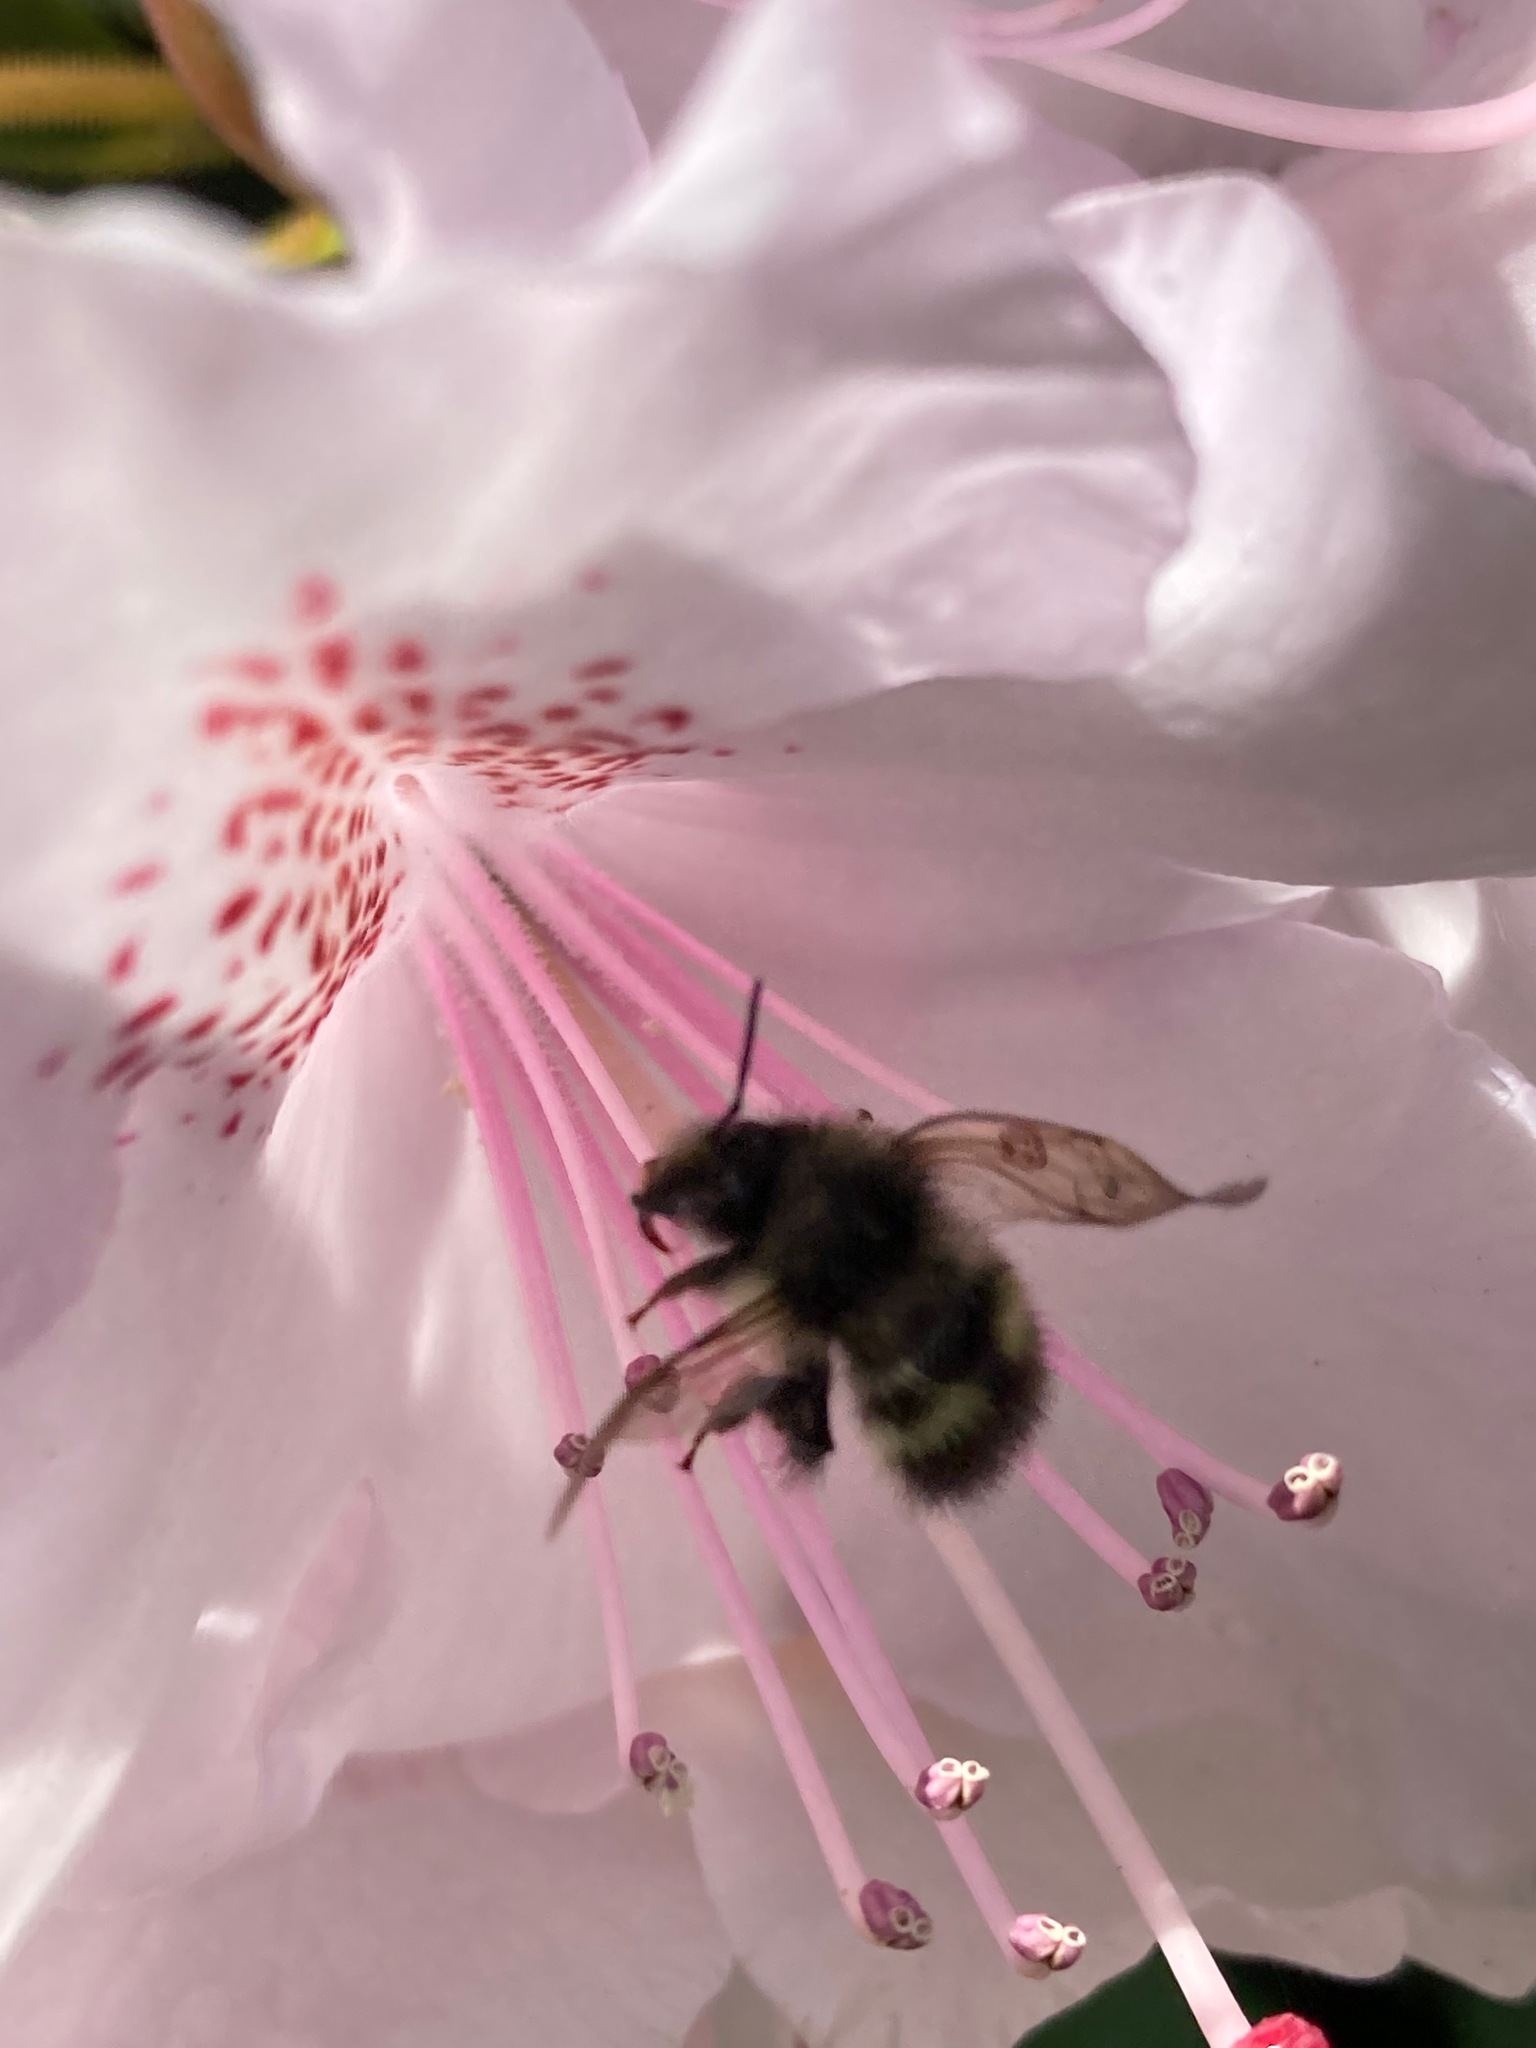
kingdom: Animalia
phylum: Arthropoda
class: Insecta
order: Hymenoptera
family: Apidae
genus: Bombus
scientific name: Bombus flavifrons
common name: Yellow head bumble bee
